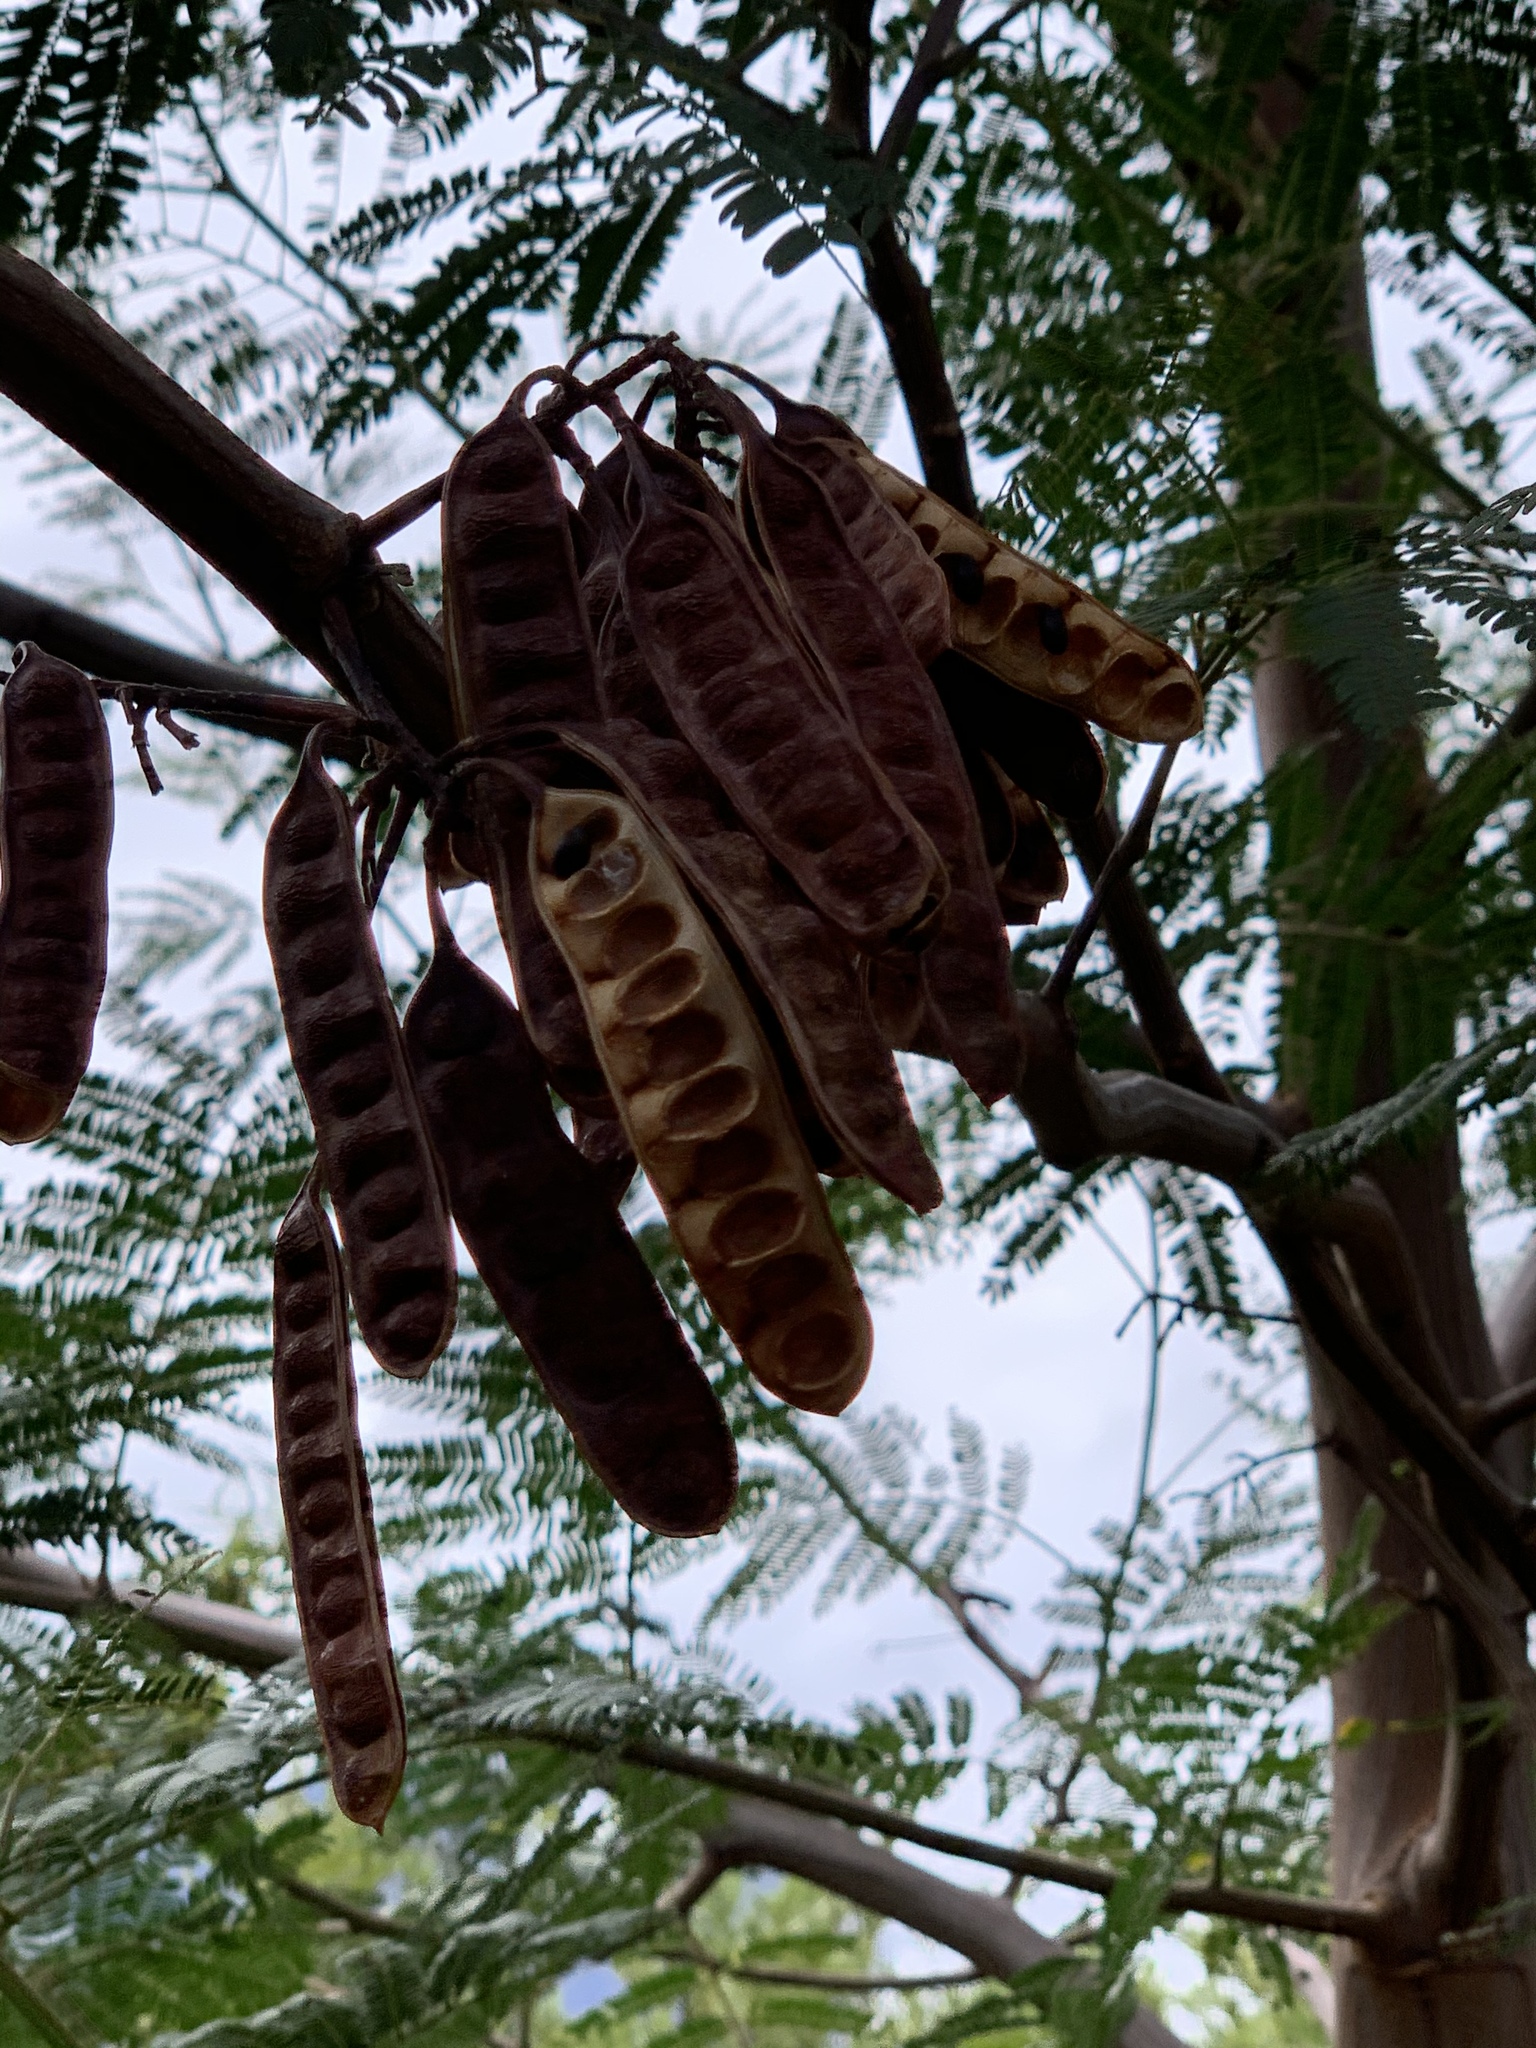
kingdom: Plantae
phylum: Tracheophyta
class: Magnoliopsida
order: Fabales
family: Fabaceae
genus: Paraserianthes
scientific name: Paraserianthes lophantha
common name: Plume albizia
